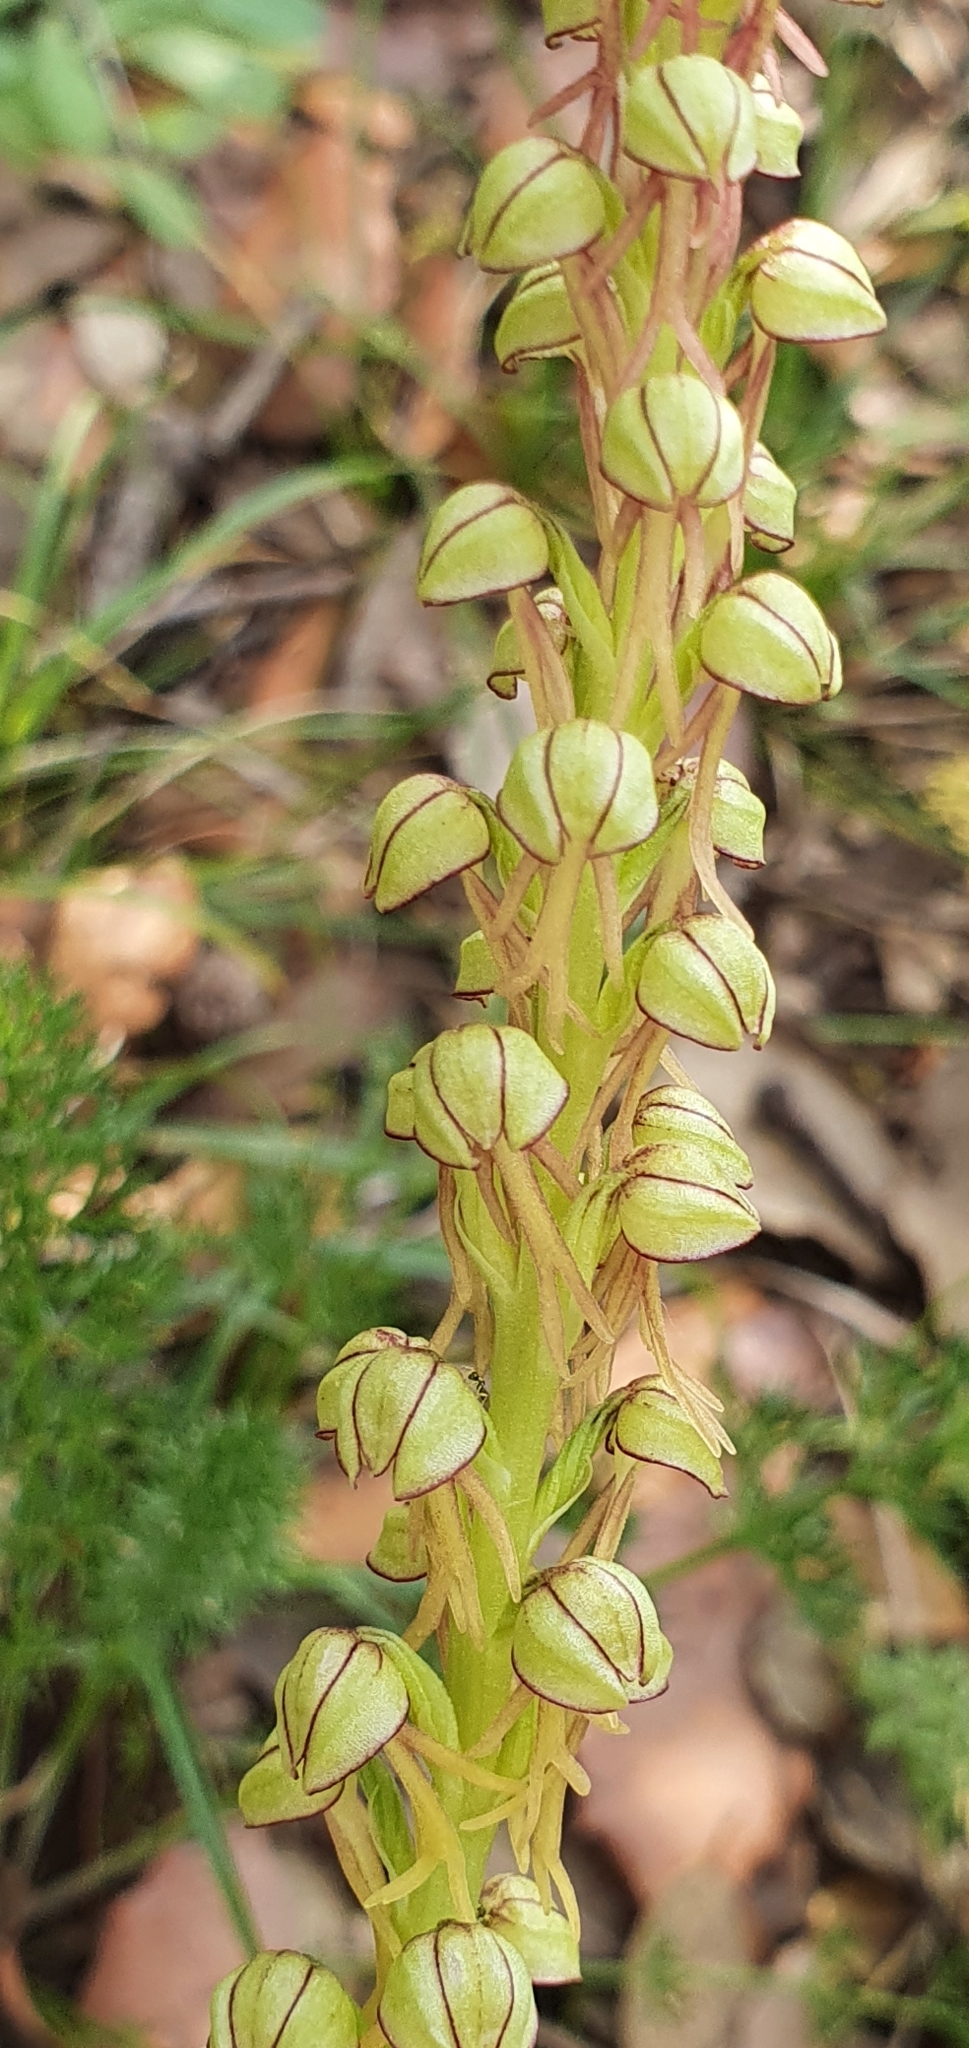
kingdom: Plantae
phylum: Tracheophyta
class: Liliopsida
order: Asparagales
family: Orchidaceae
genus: Orchis
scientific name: Orchis anthropophora
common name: Man orchid
